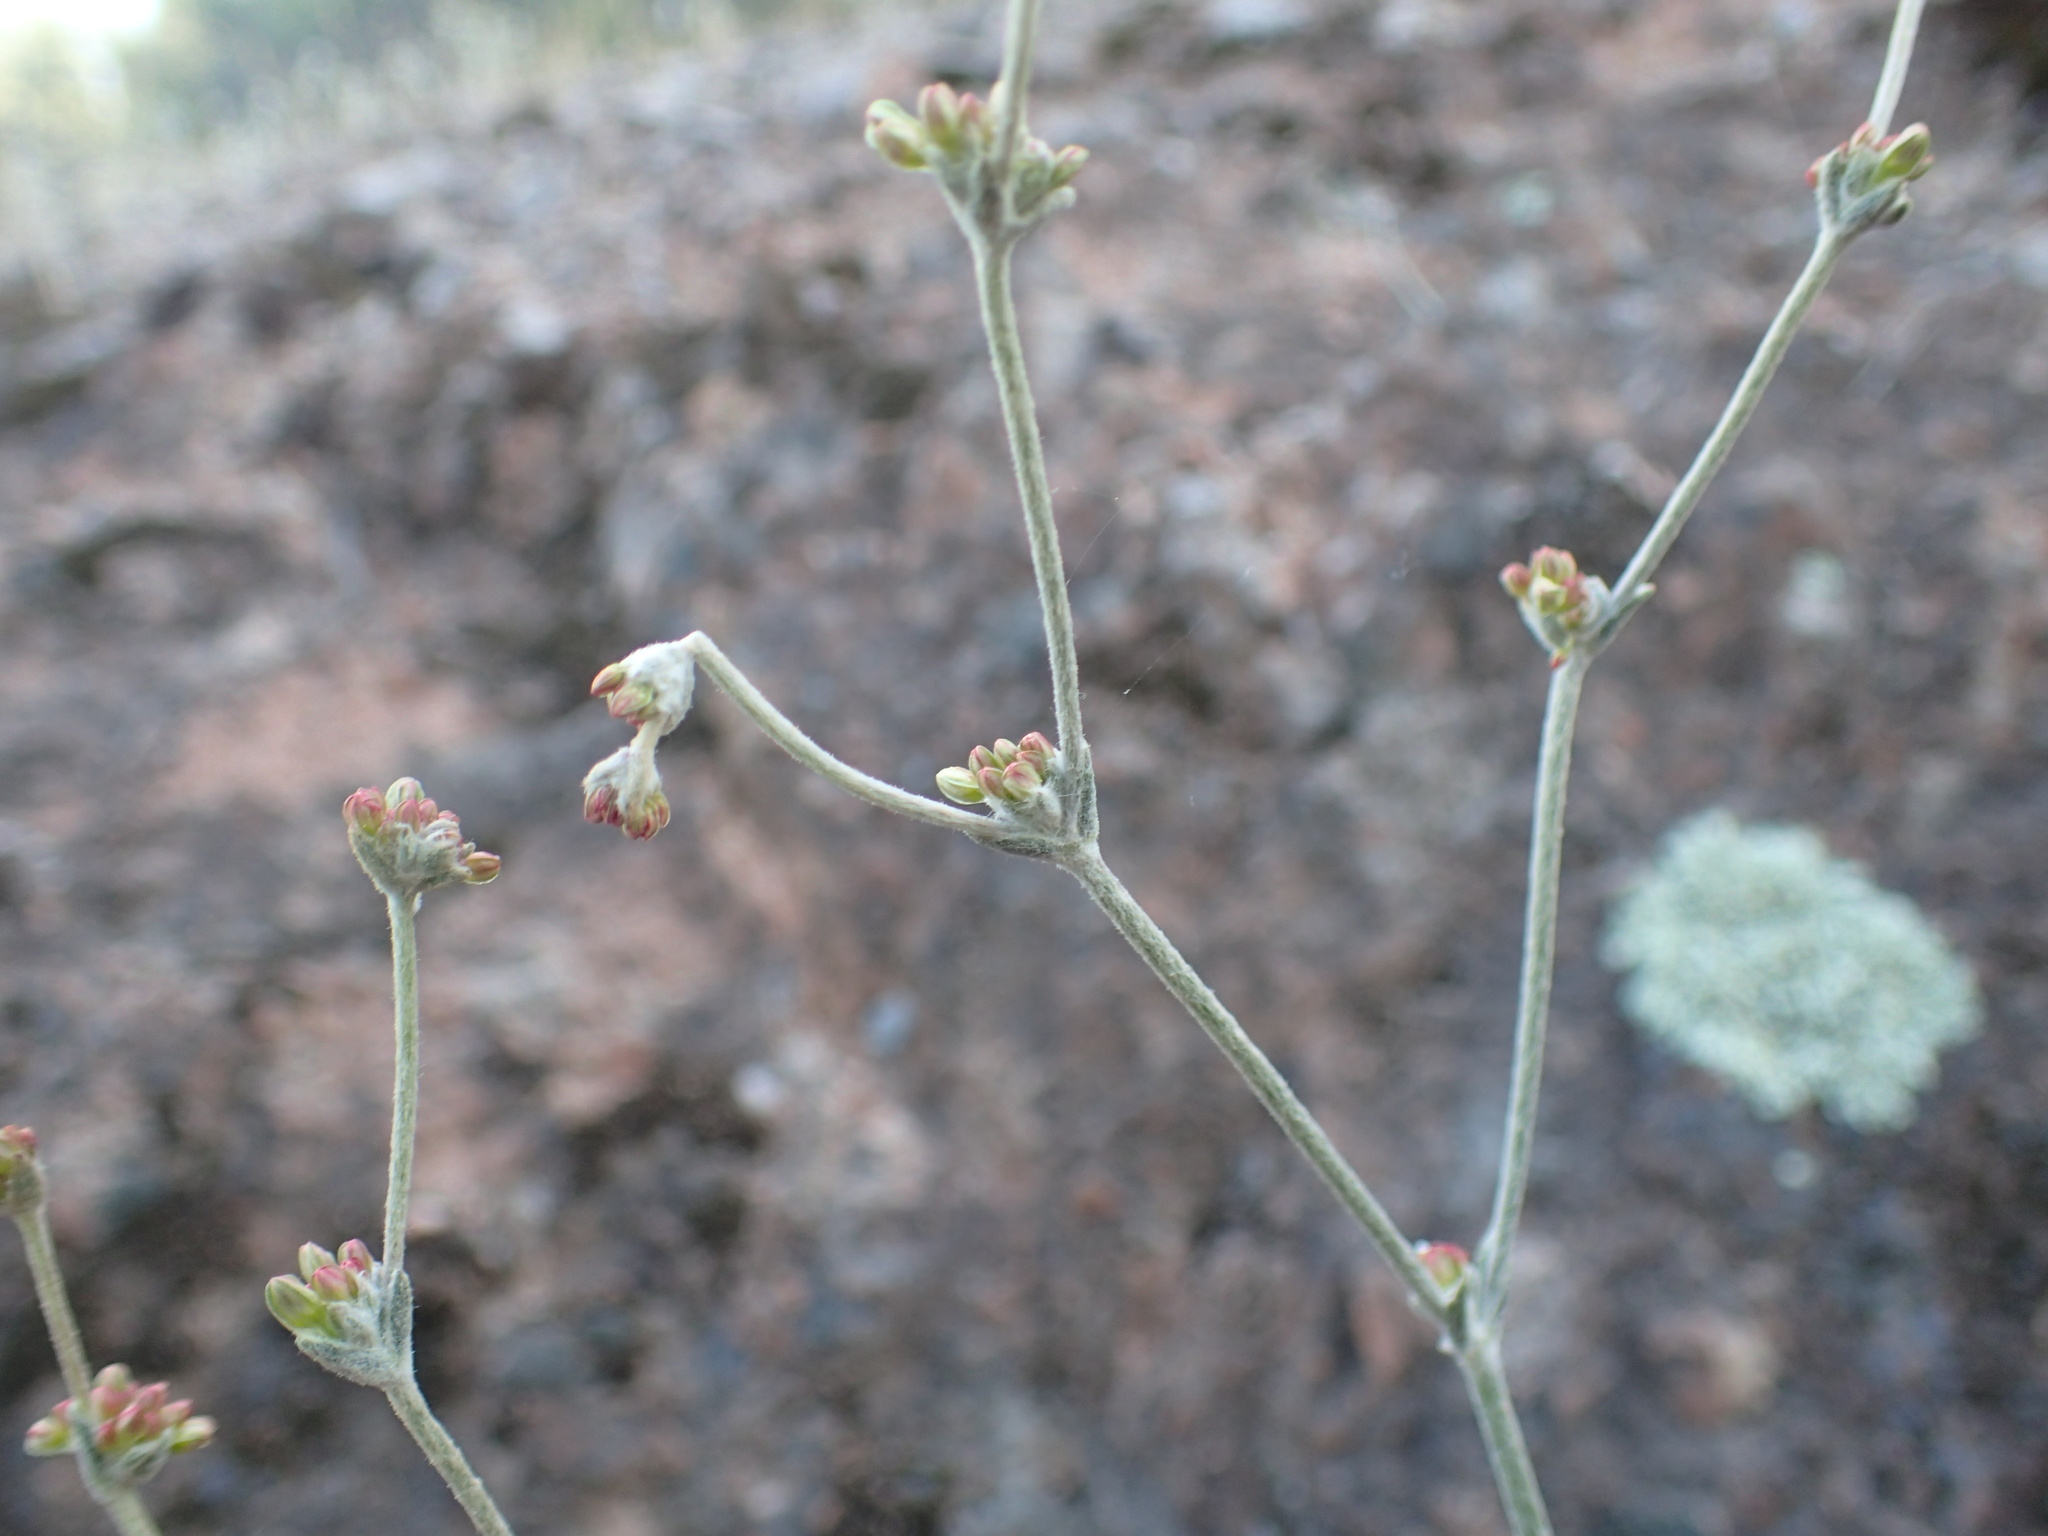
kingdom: Plantae
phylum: Tracheophyta
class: Magnoliopsida
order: Caryophyllales
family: Polygonaceae
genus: Eriogonum
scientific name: Eriogonum saxatile
